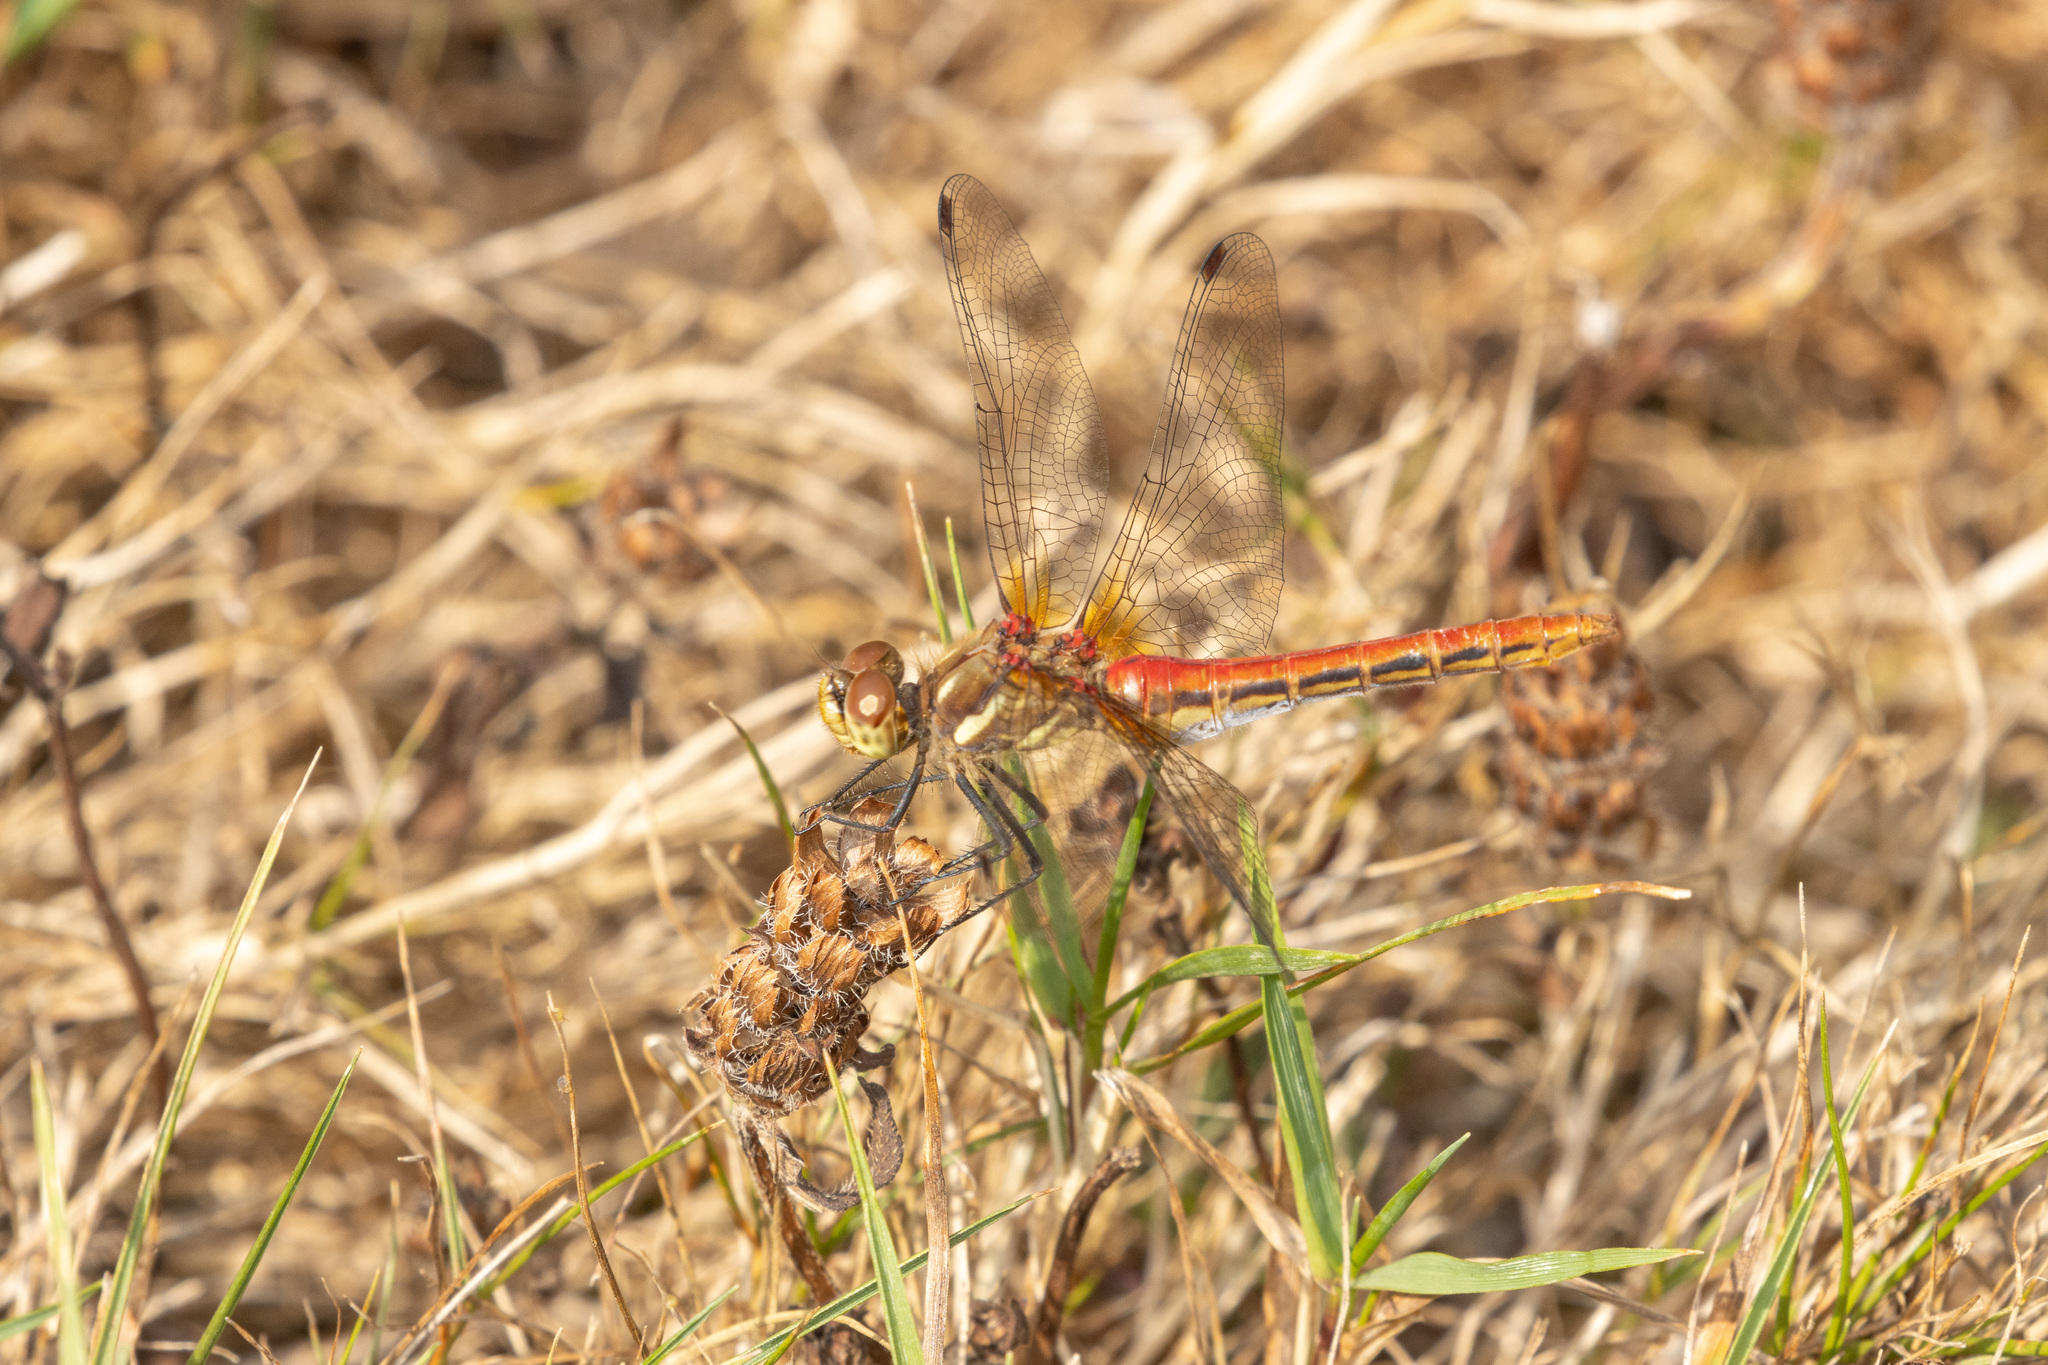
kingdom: Animalia
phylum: Arthropoda
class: Insecta
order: Odonata
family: Libellulidae
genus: Sympetrum
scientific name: Sympetrum pallipes
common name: Striped meadowhawk
